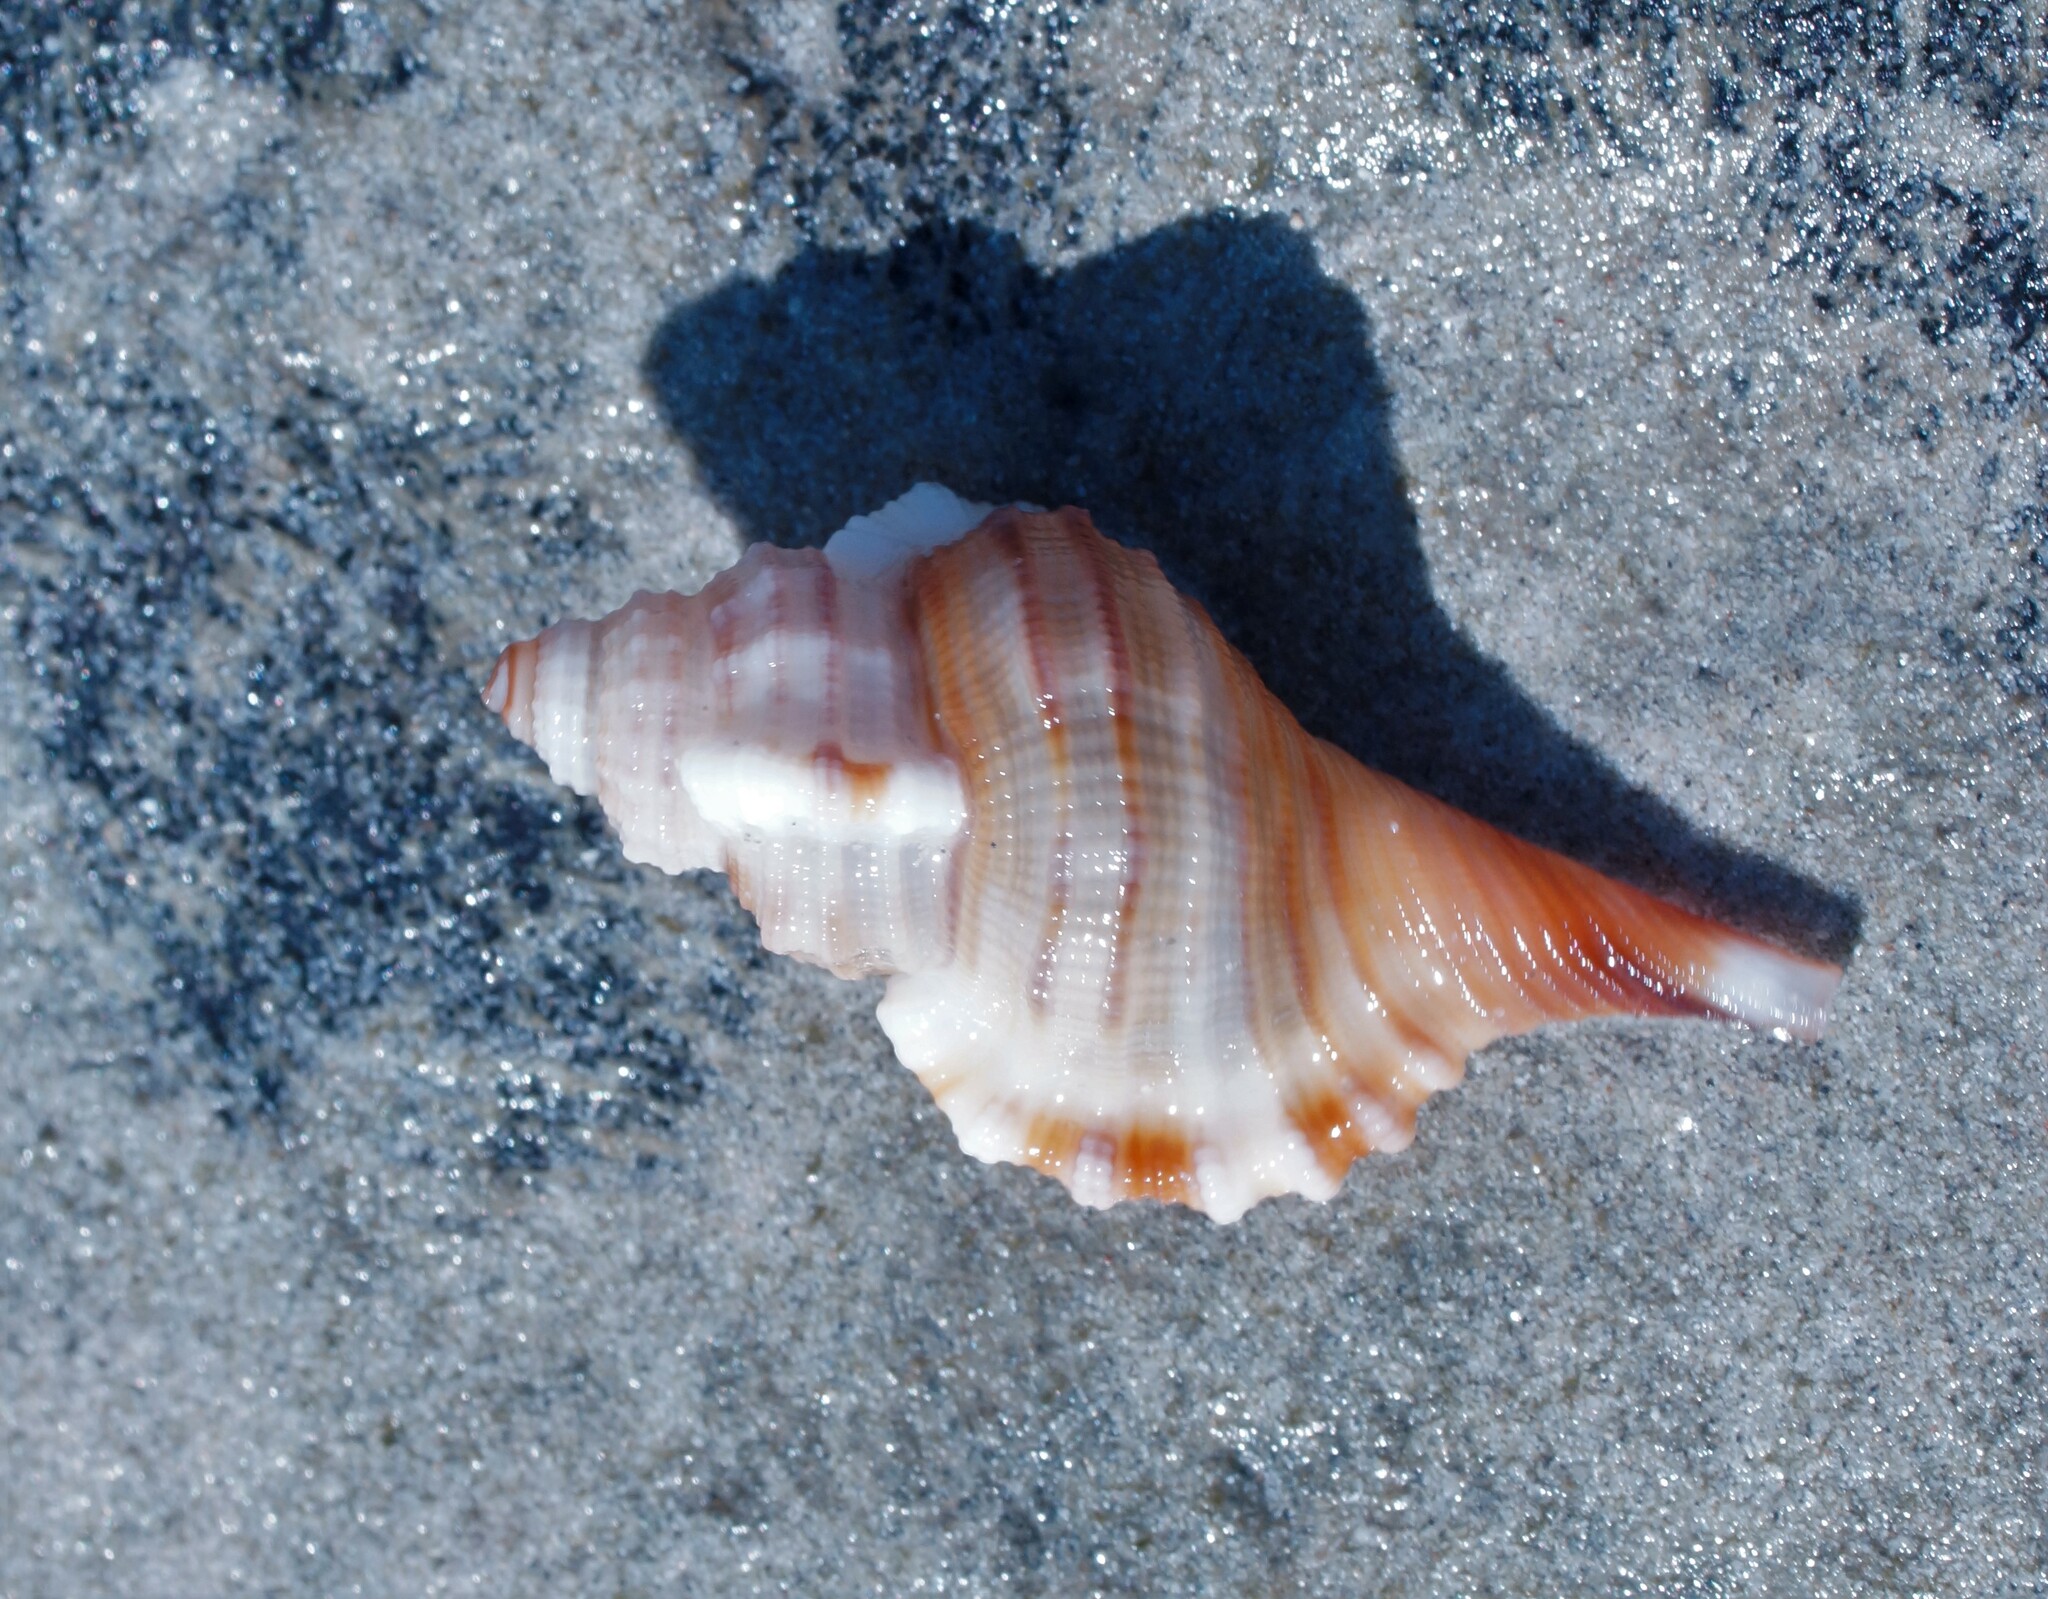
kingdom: Animalia
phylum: Mollusca
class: Gastropoda
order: Littorinimorpha
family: Cymatiidae
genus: Monoplex
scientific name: Monoplex vespaceus
